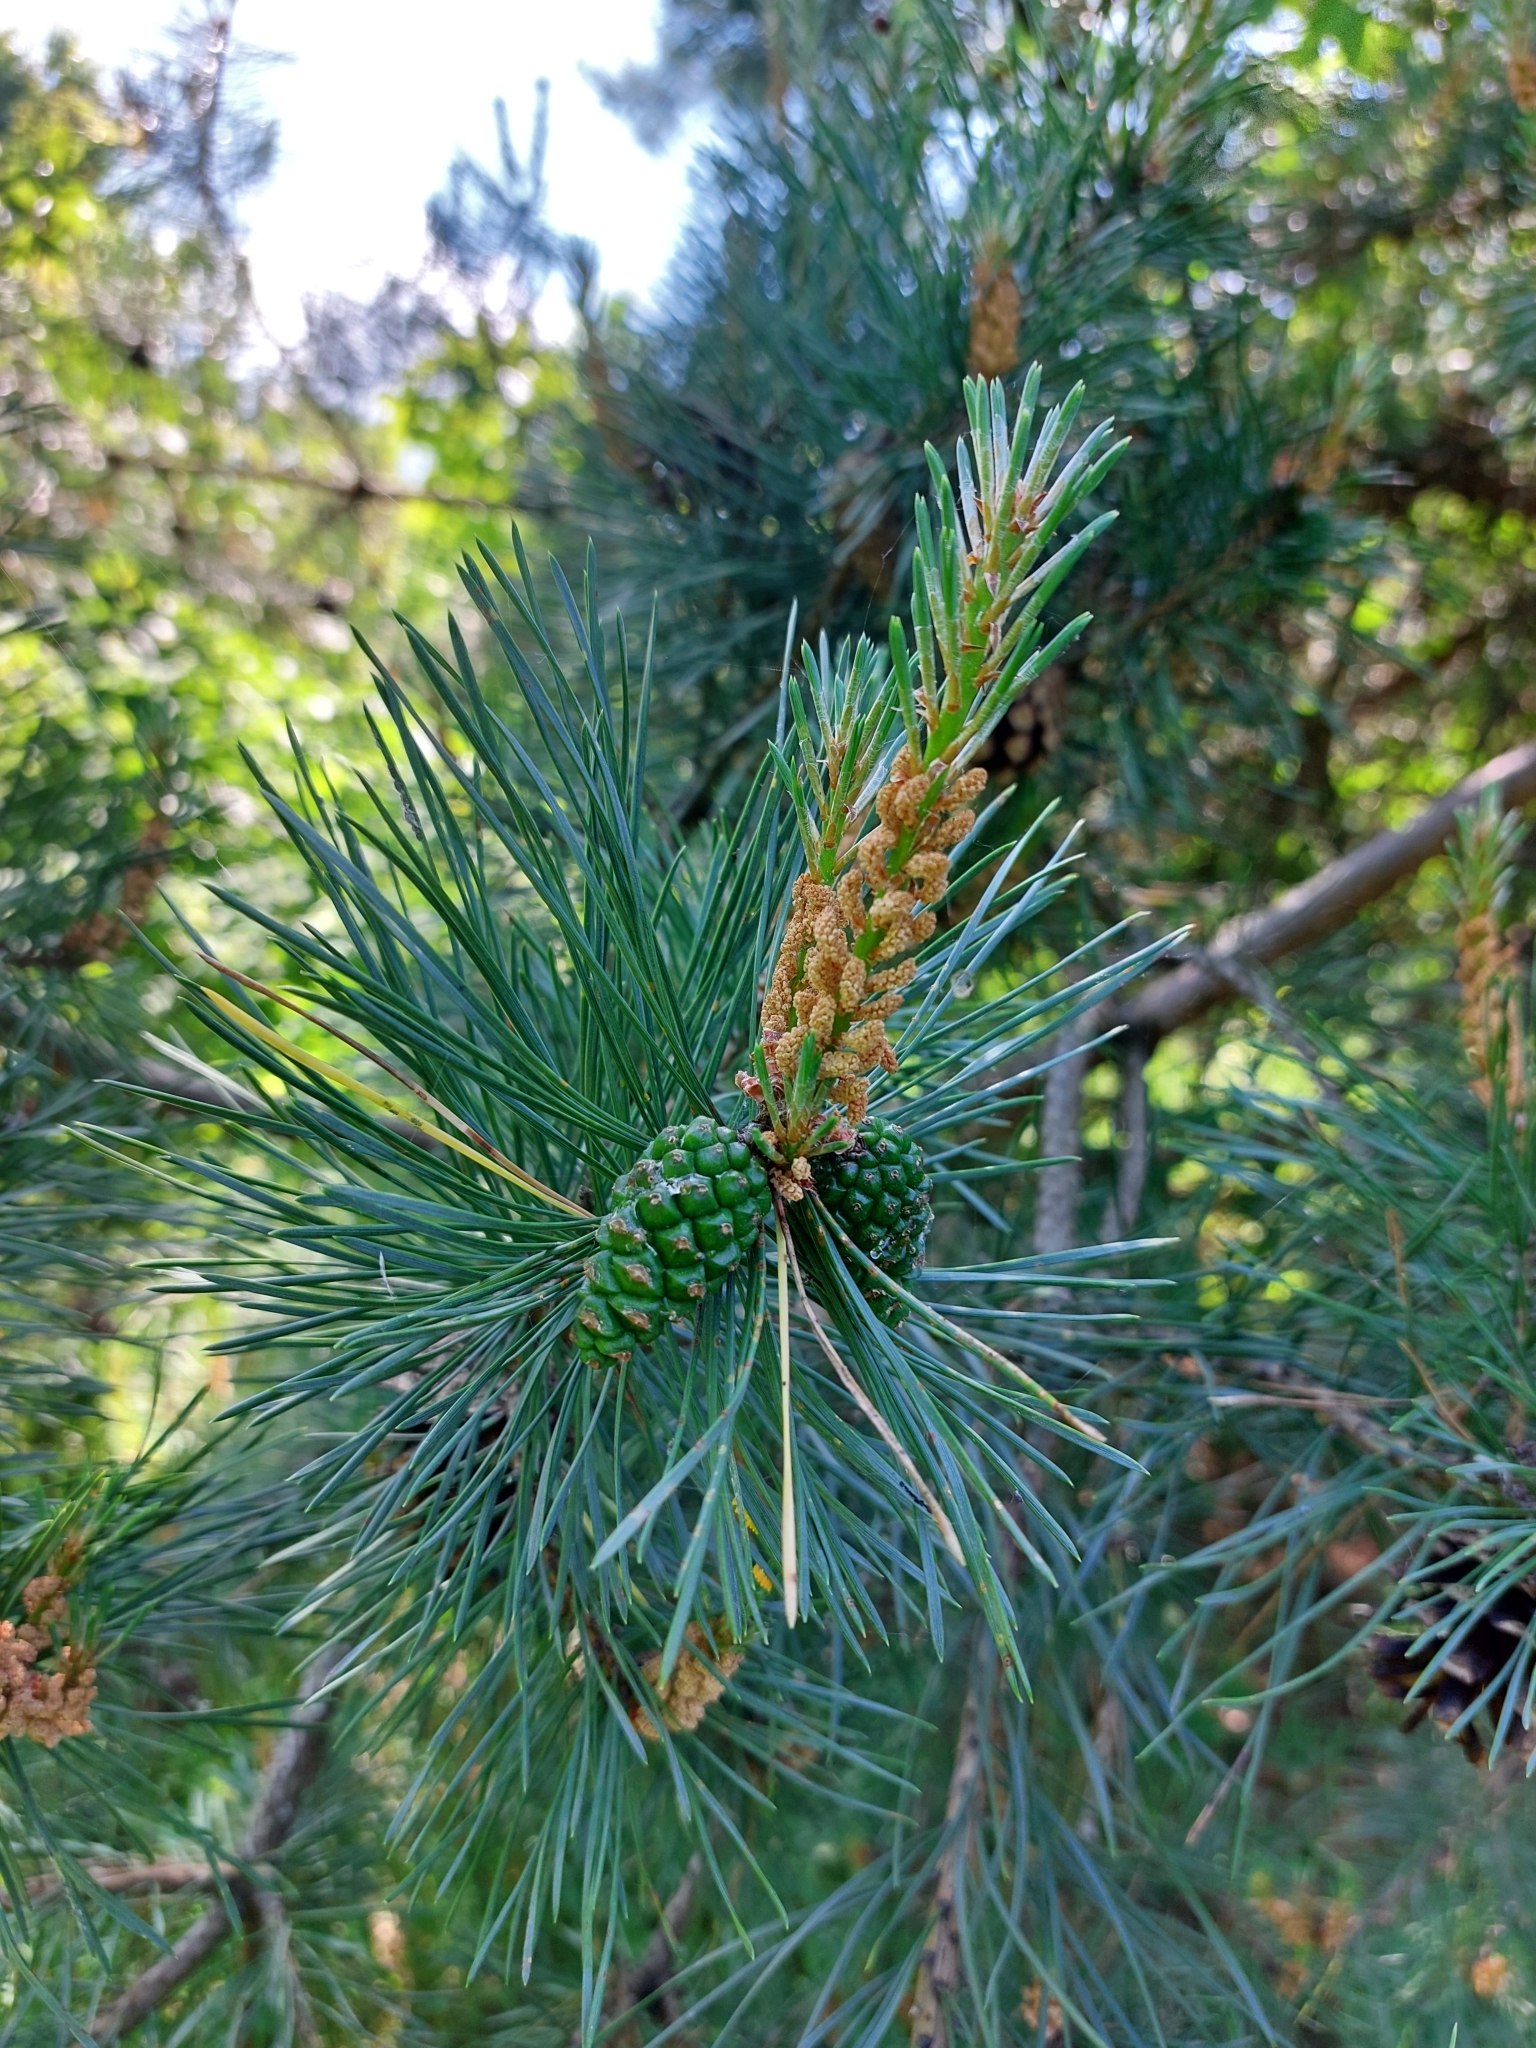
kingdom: Plantae
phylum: Tracheophyta
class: Pinopsida
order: Pinales
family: Pinaceae
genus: Pinus
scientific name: Pinus sylvestris
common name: Scots pine
